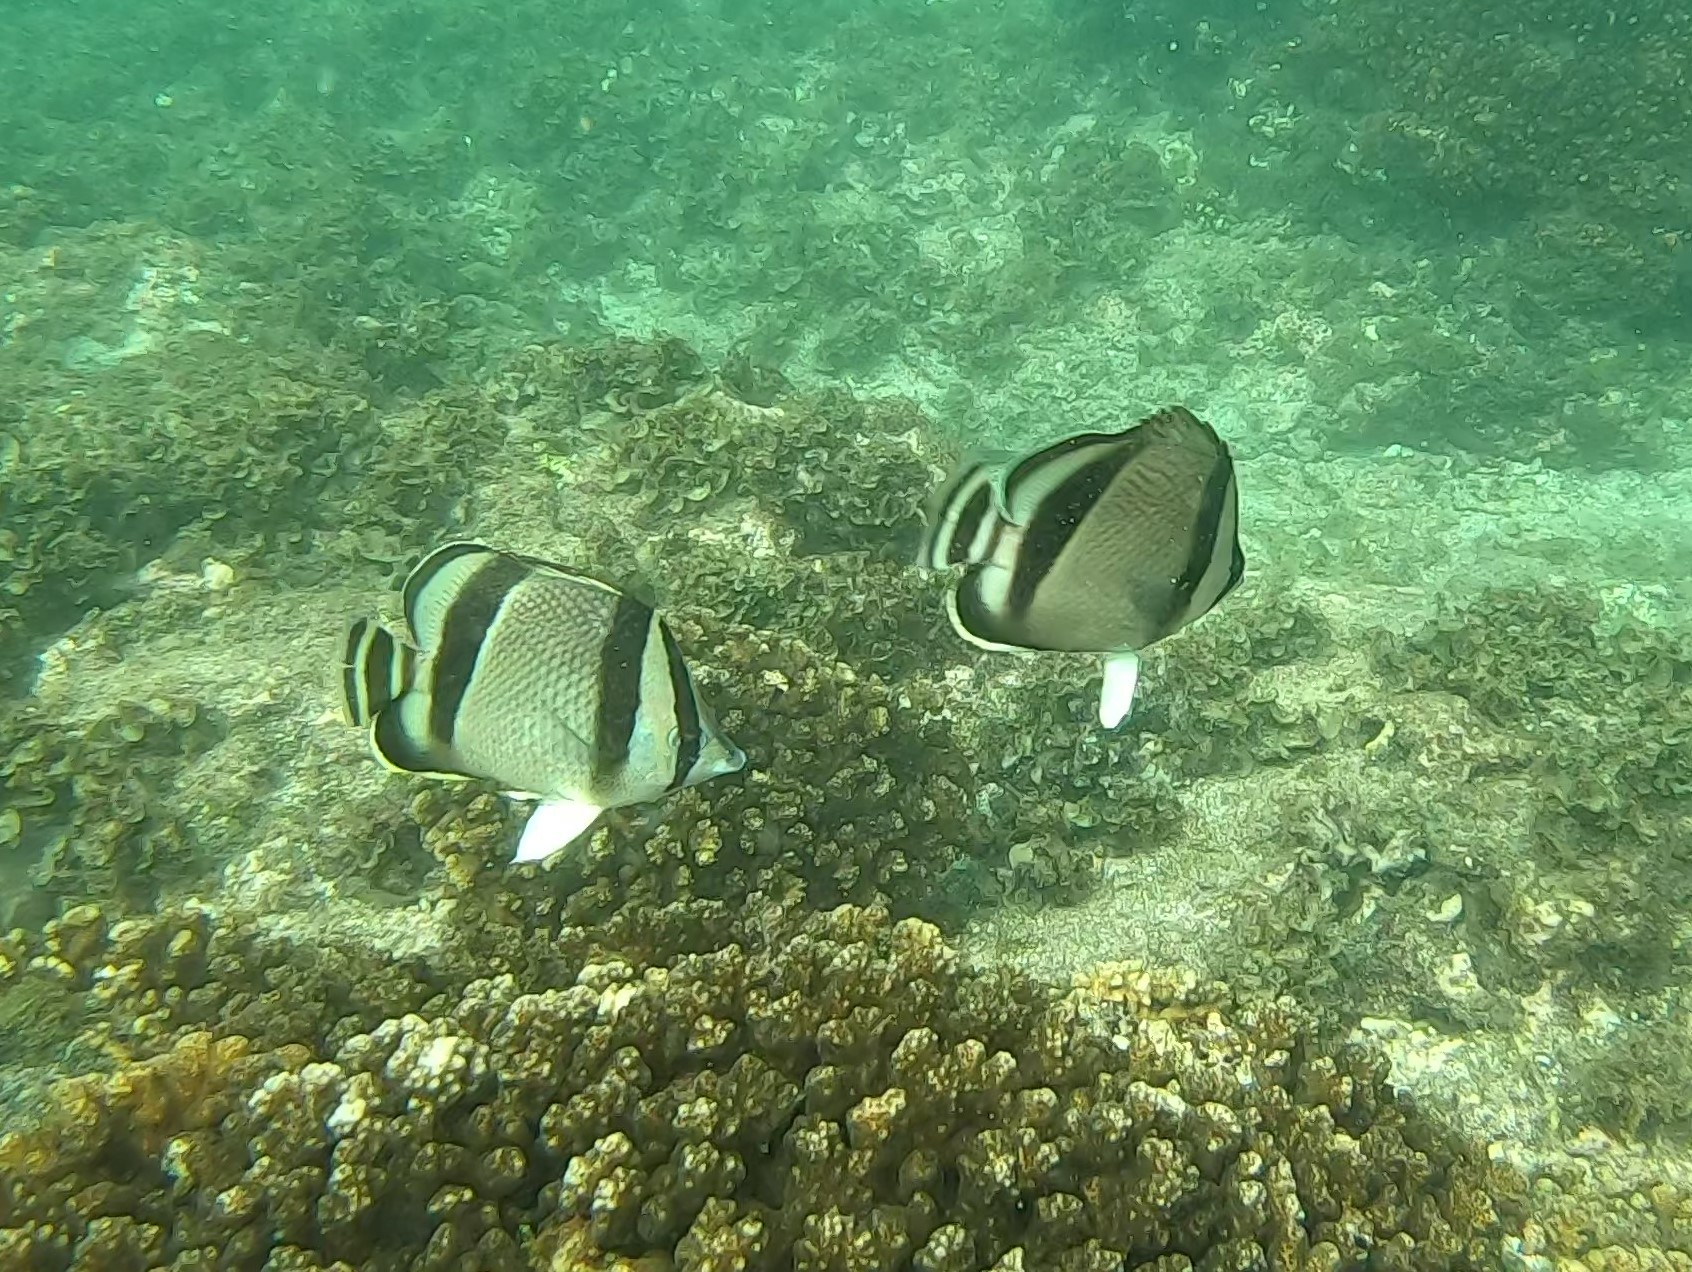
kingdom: Animalia
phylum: Chordata
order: Perciformes
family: Chaetodontidae
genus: Chaetodon
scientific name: Chaetodon humeralis
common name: Threebanded butterflyfish
